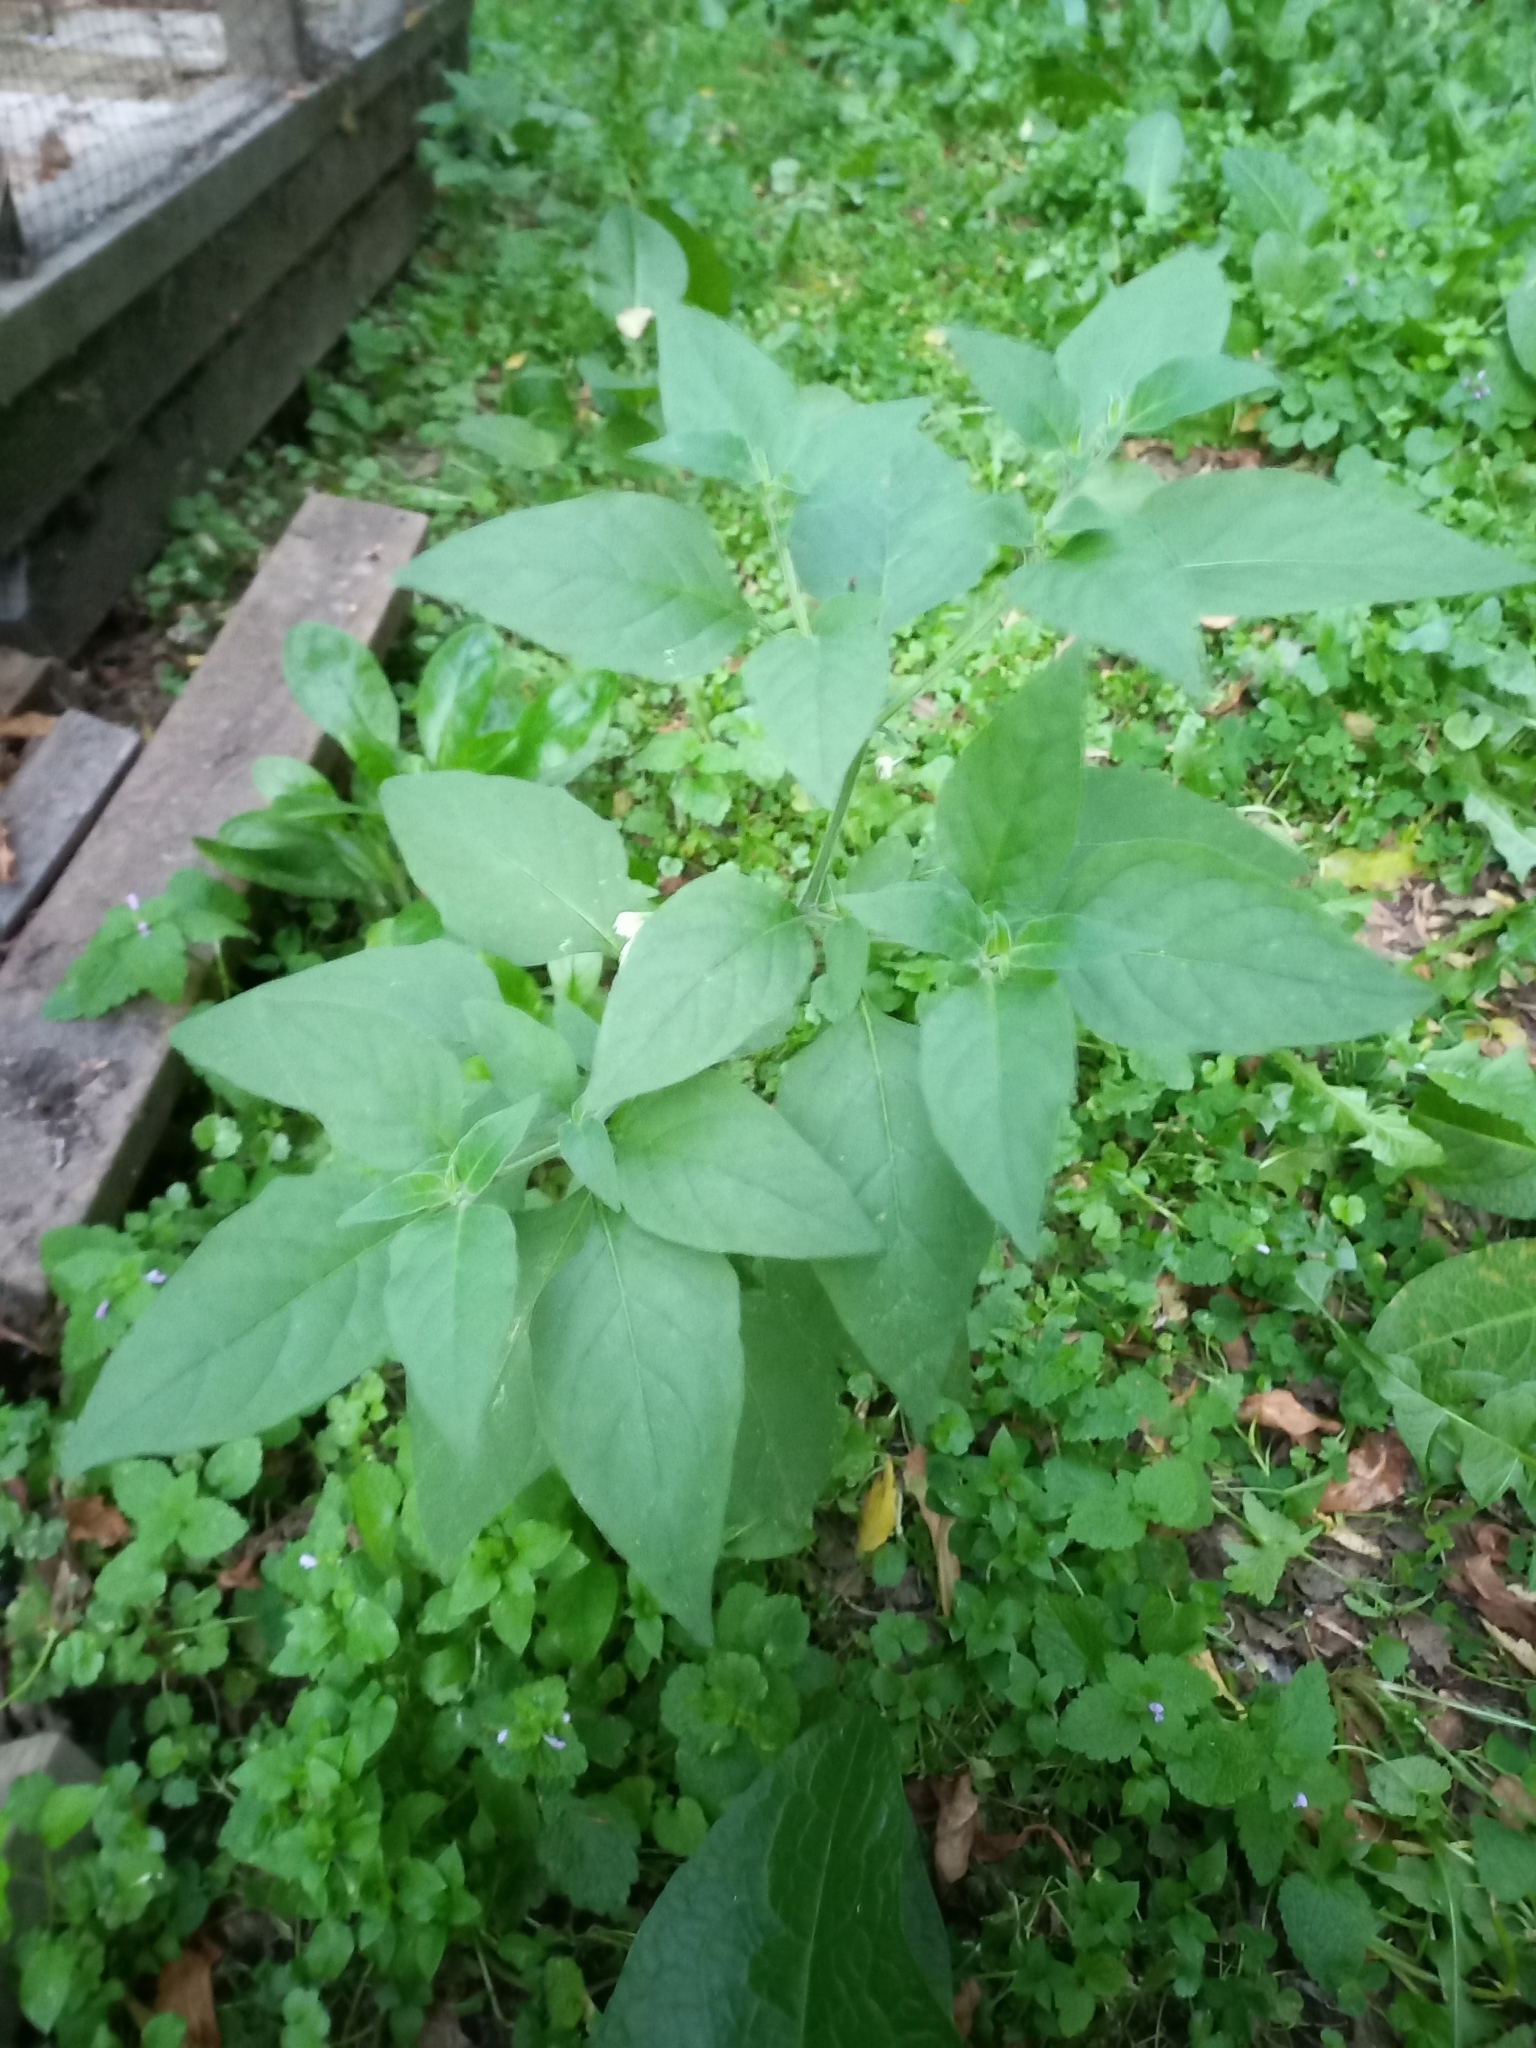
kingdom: Plantae
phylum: Tracheophyta
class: Magnoliopsida
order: Solanales
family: Solanaceae
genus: Solanum
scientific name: Solanum chenopodioides
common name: Tall nightshade
